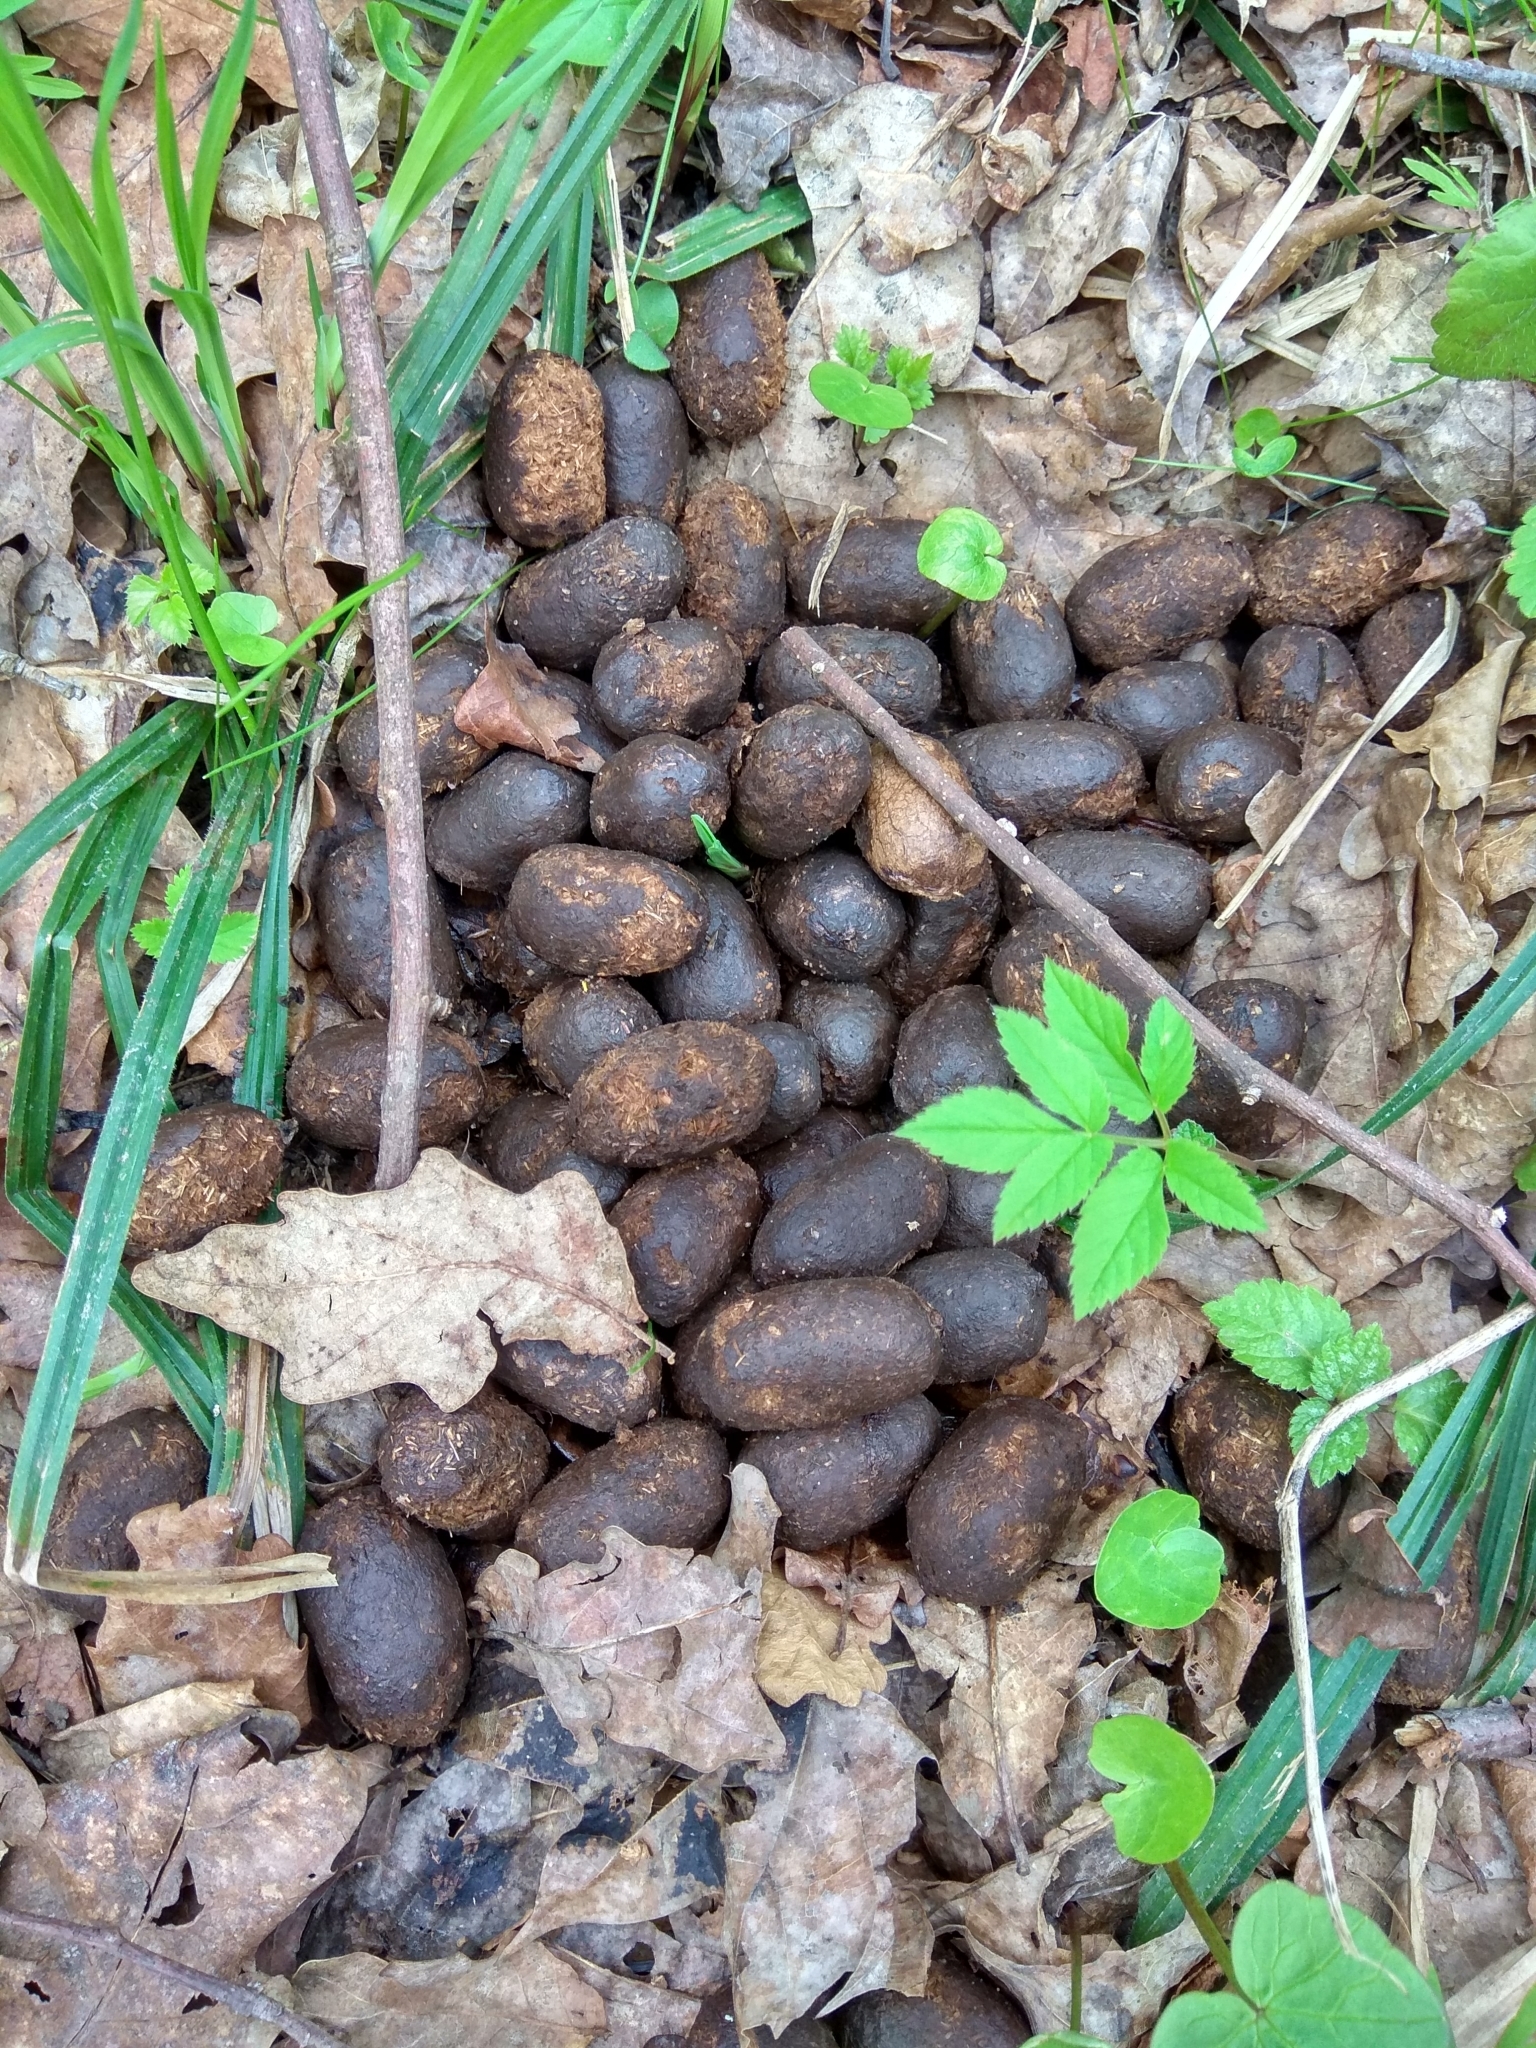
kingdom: Animalia
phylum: Chordata
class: Mammalia
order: Artiodactyla
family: Cervidae
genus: Alces
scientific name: Alces alces
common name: Moose
